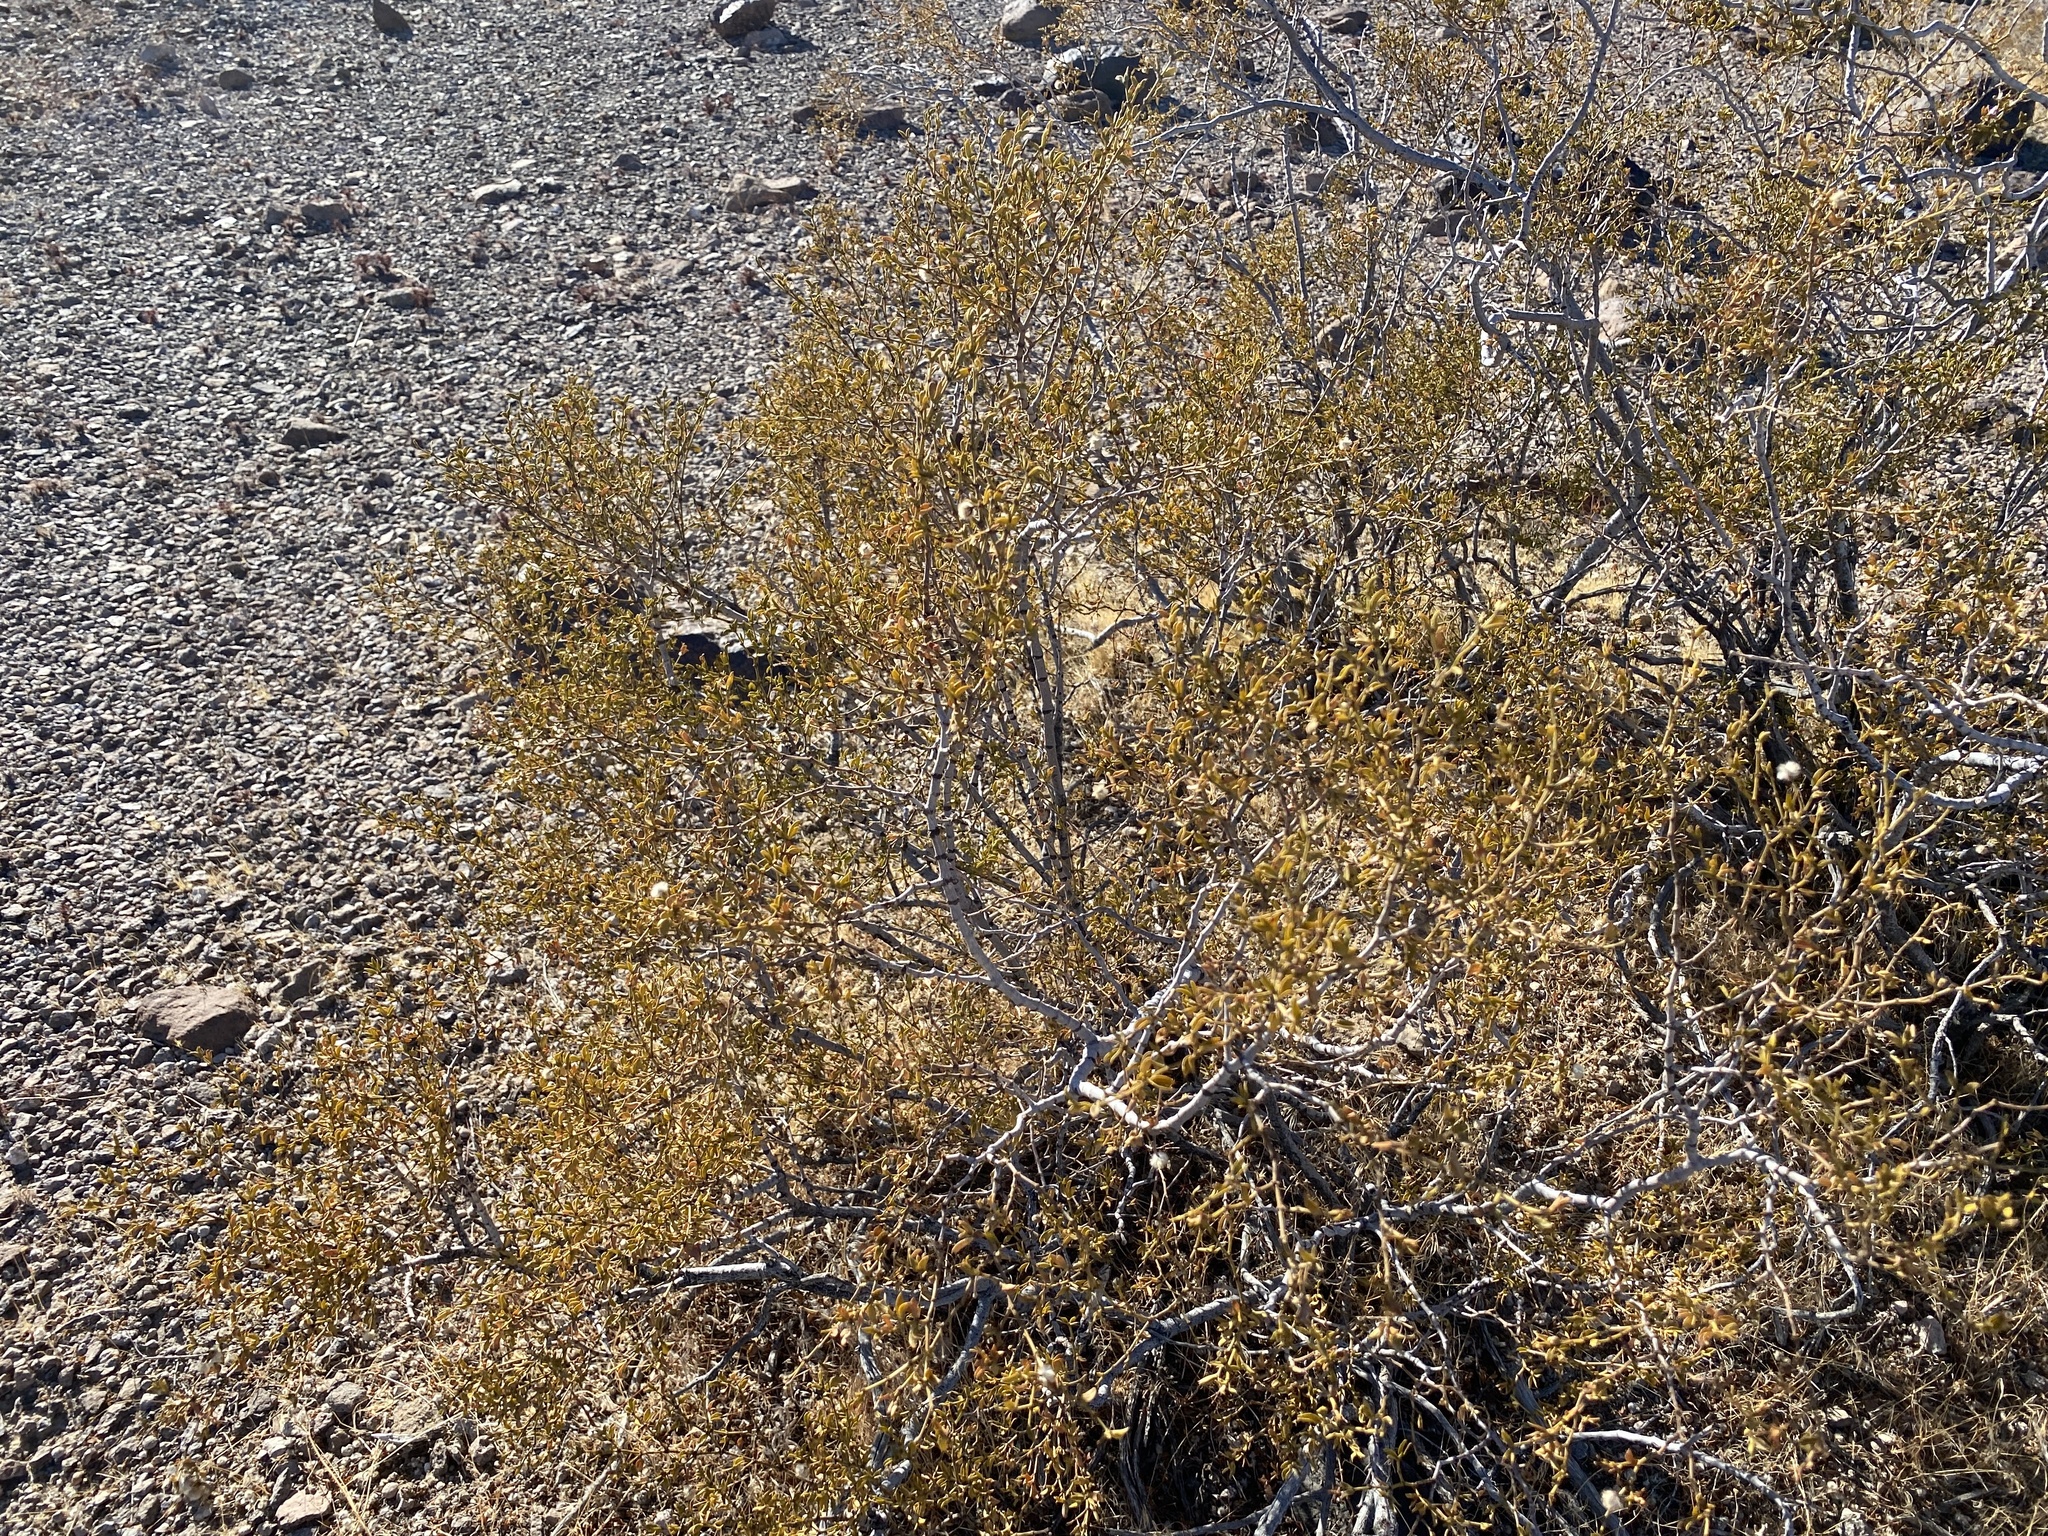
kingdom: Plantae
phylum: Tracheophyta
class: Magnoliopsida
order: Zygophyllales
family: Zygophyllaceae
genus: Larrea
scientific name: Larrea tridentata
